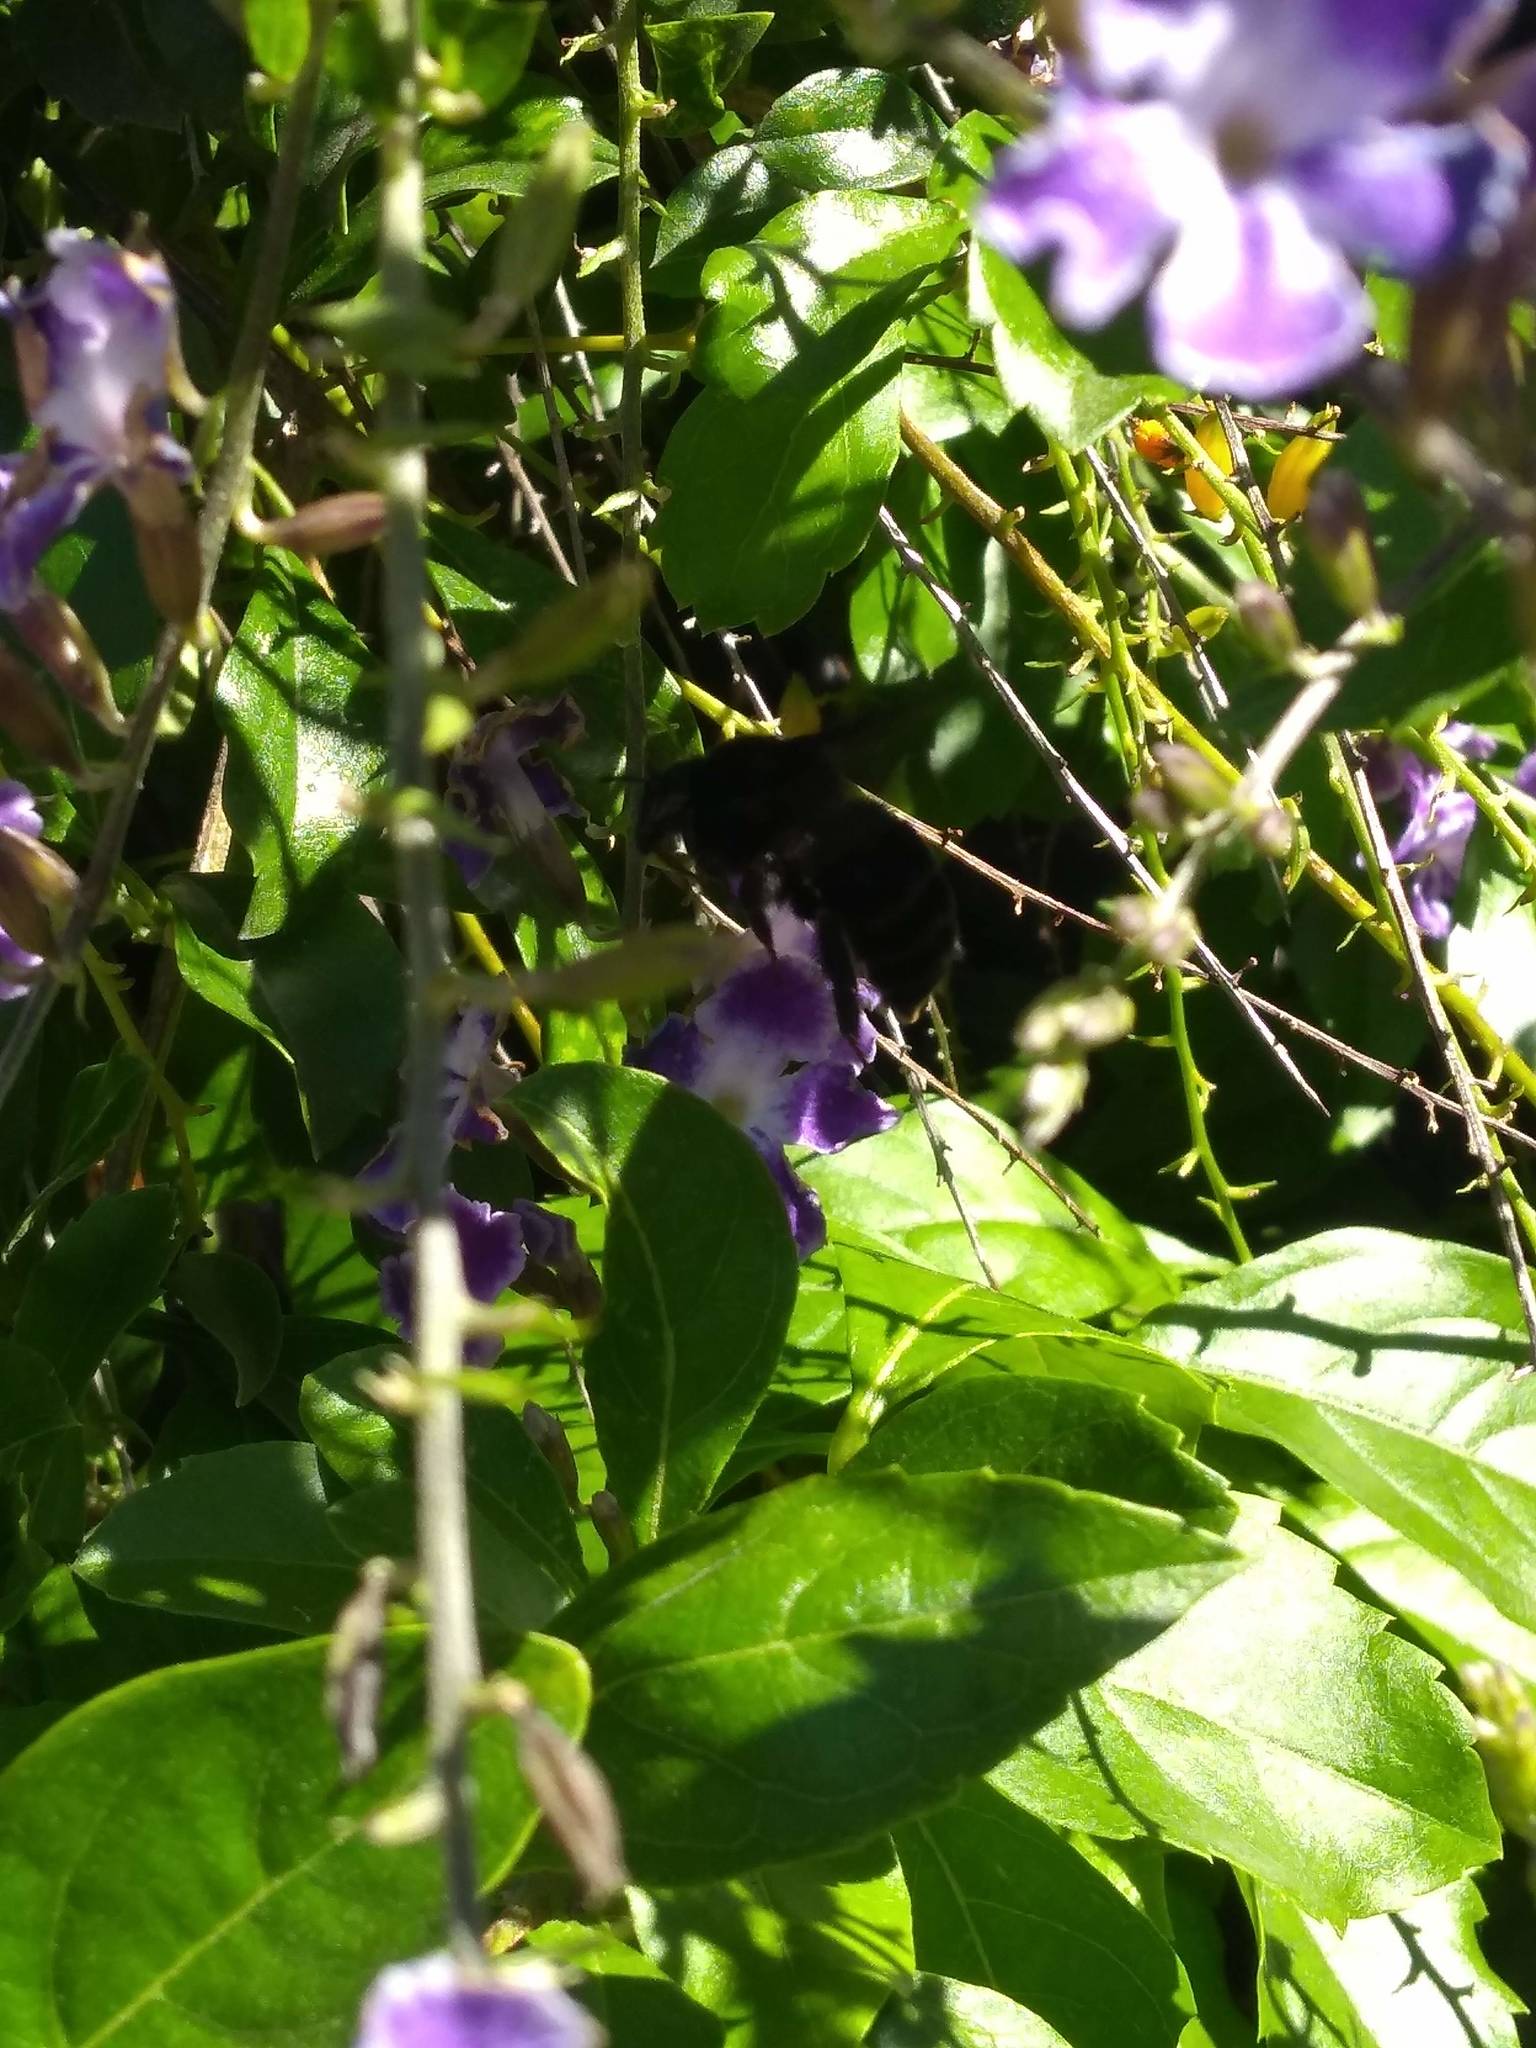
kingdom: Animalia
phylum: Arthropoda
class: Insecta
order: Hymenoptera
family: Apidae
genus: Bombus
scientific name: Bombus pauloensis
